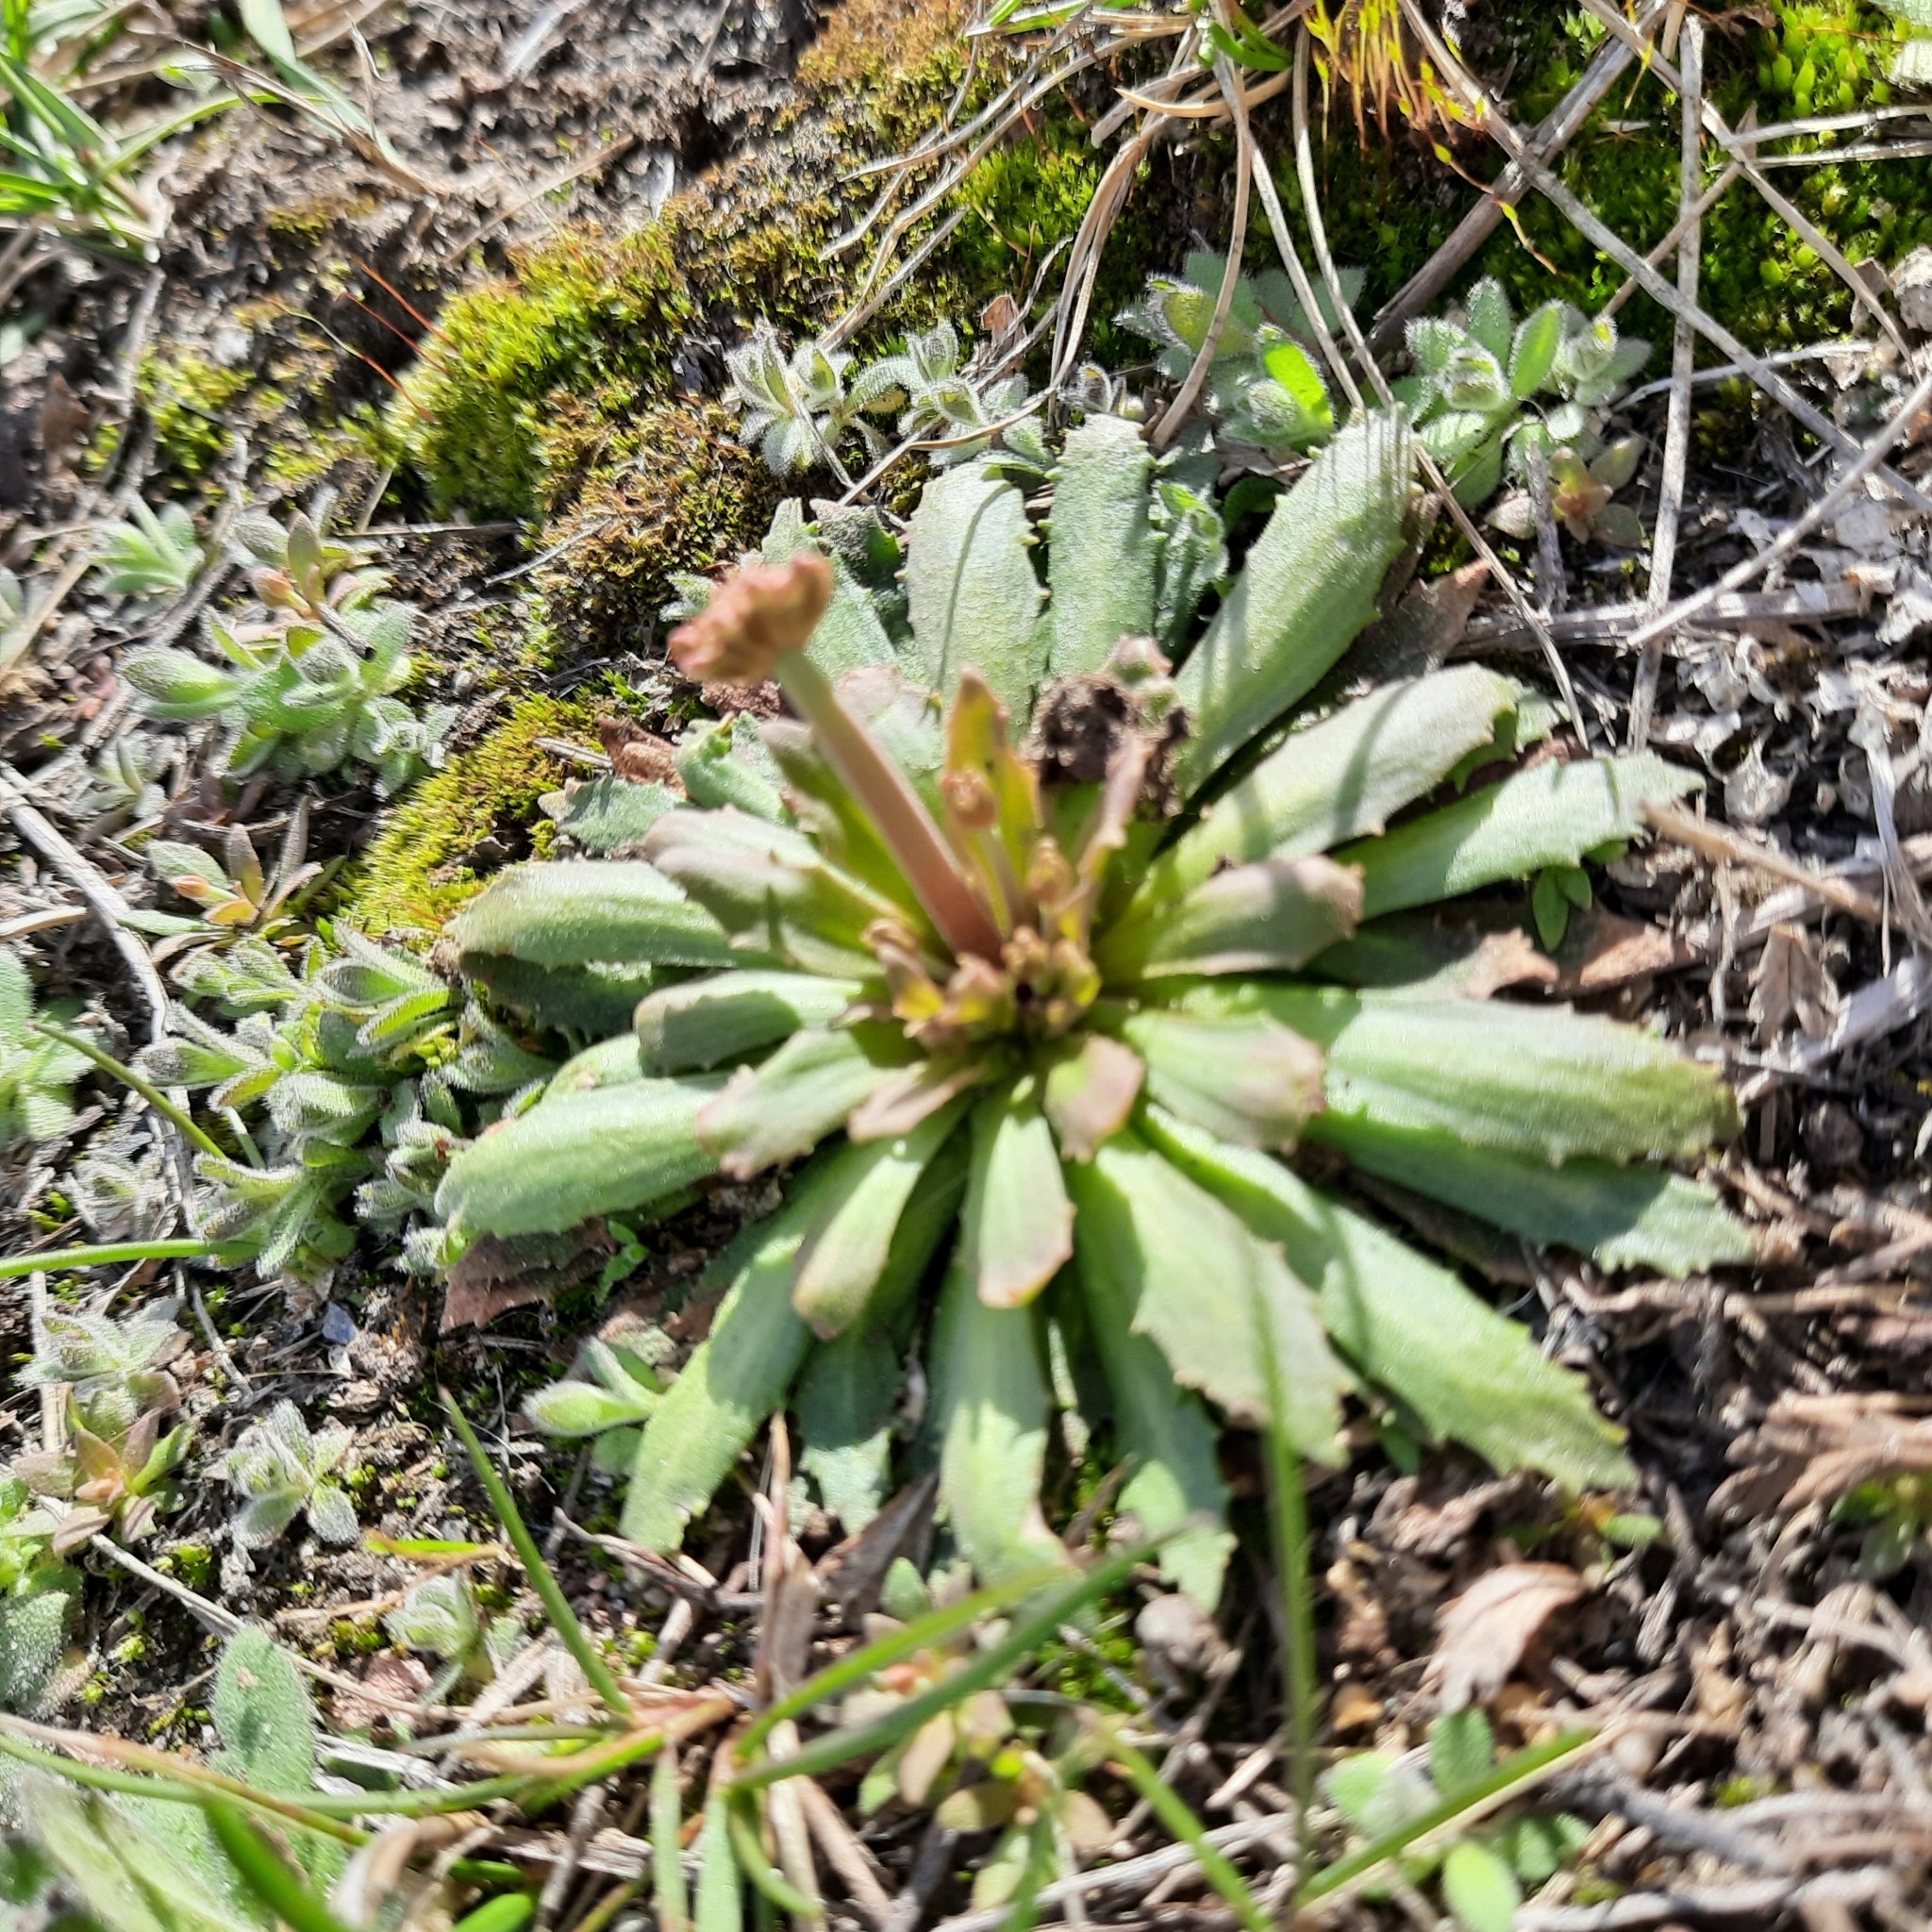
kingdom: Plantae
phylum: Tracheophyta
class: Magnoliopsida
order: Ericales
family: Primulaceae
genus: Androsace
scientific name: Androsace septentrionalis
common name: Hairy northern fairy-candelabra
